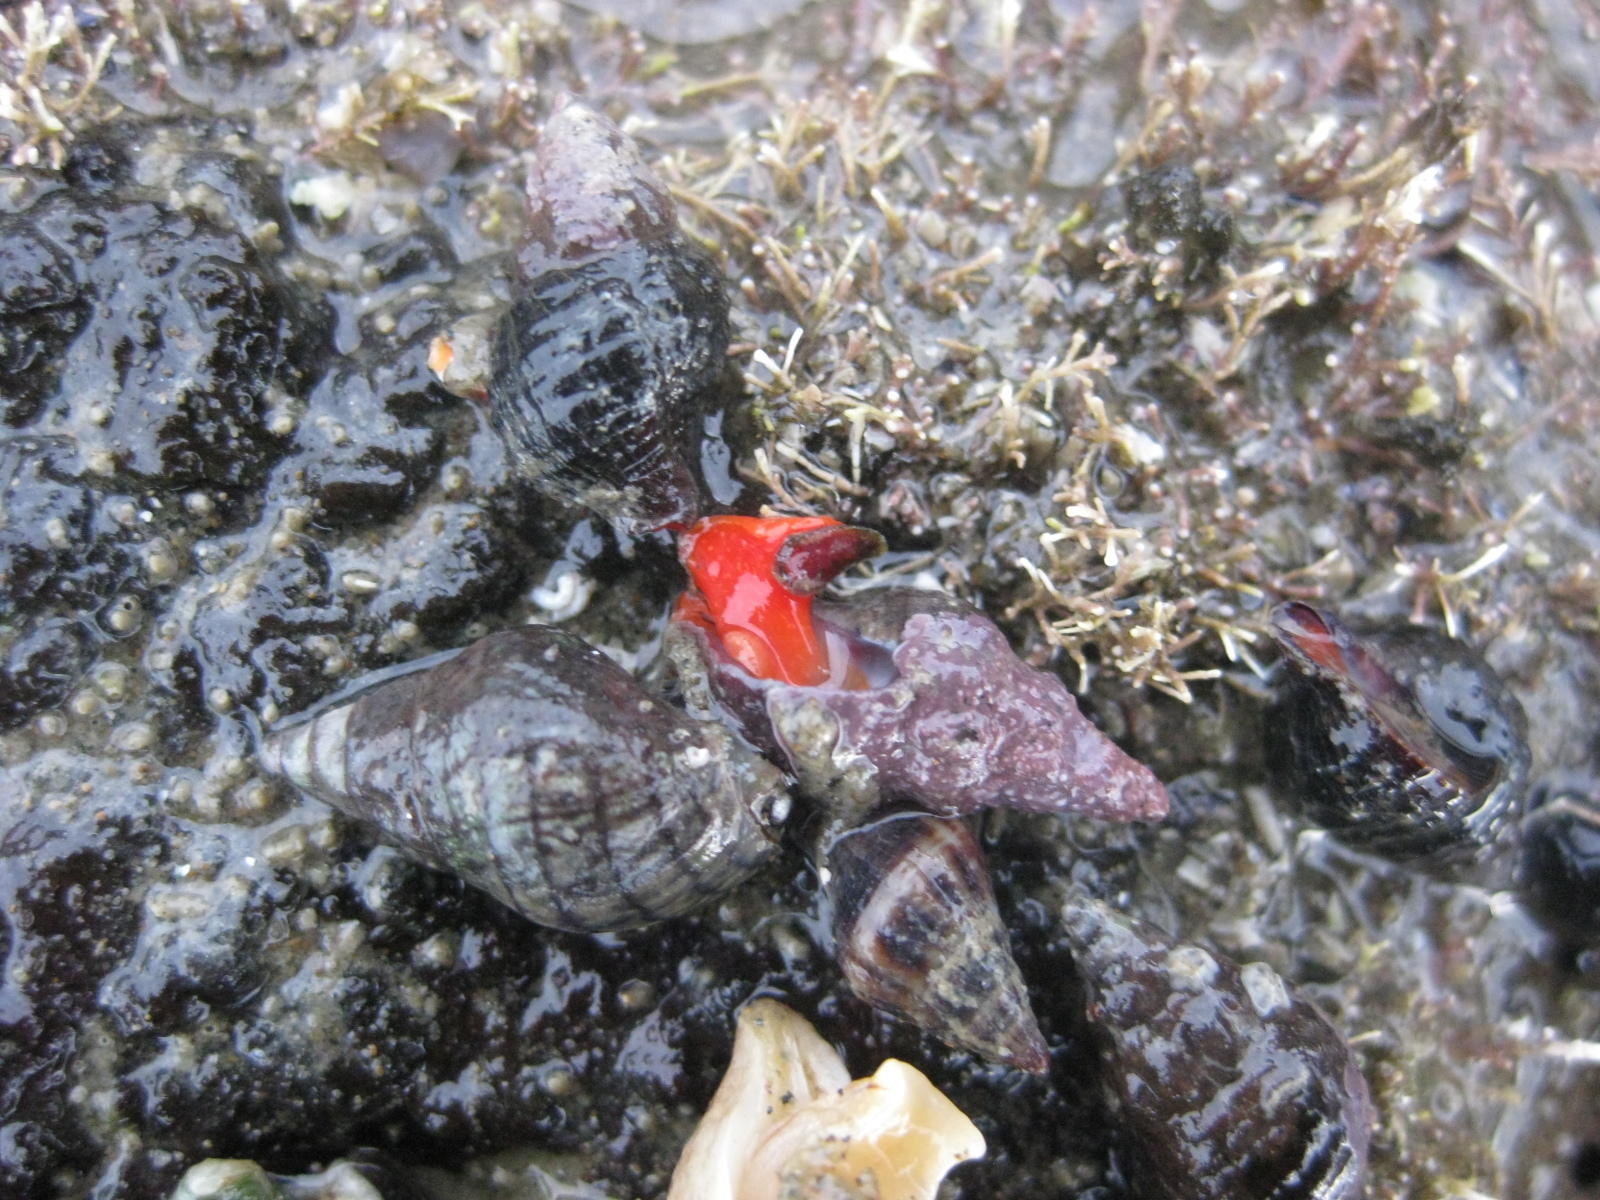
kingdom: Animalia
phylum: Mollusca
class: Gastropoda
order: Neogastropoda
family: Fasciolariidae
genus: Taron
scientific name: Taron dubius
